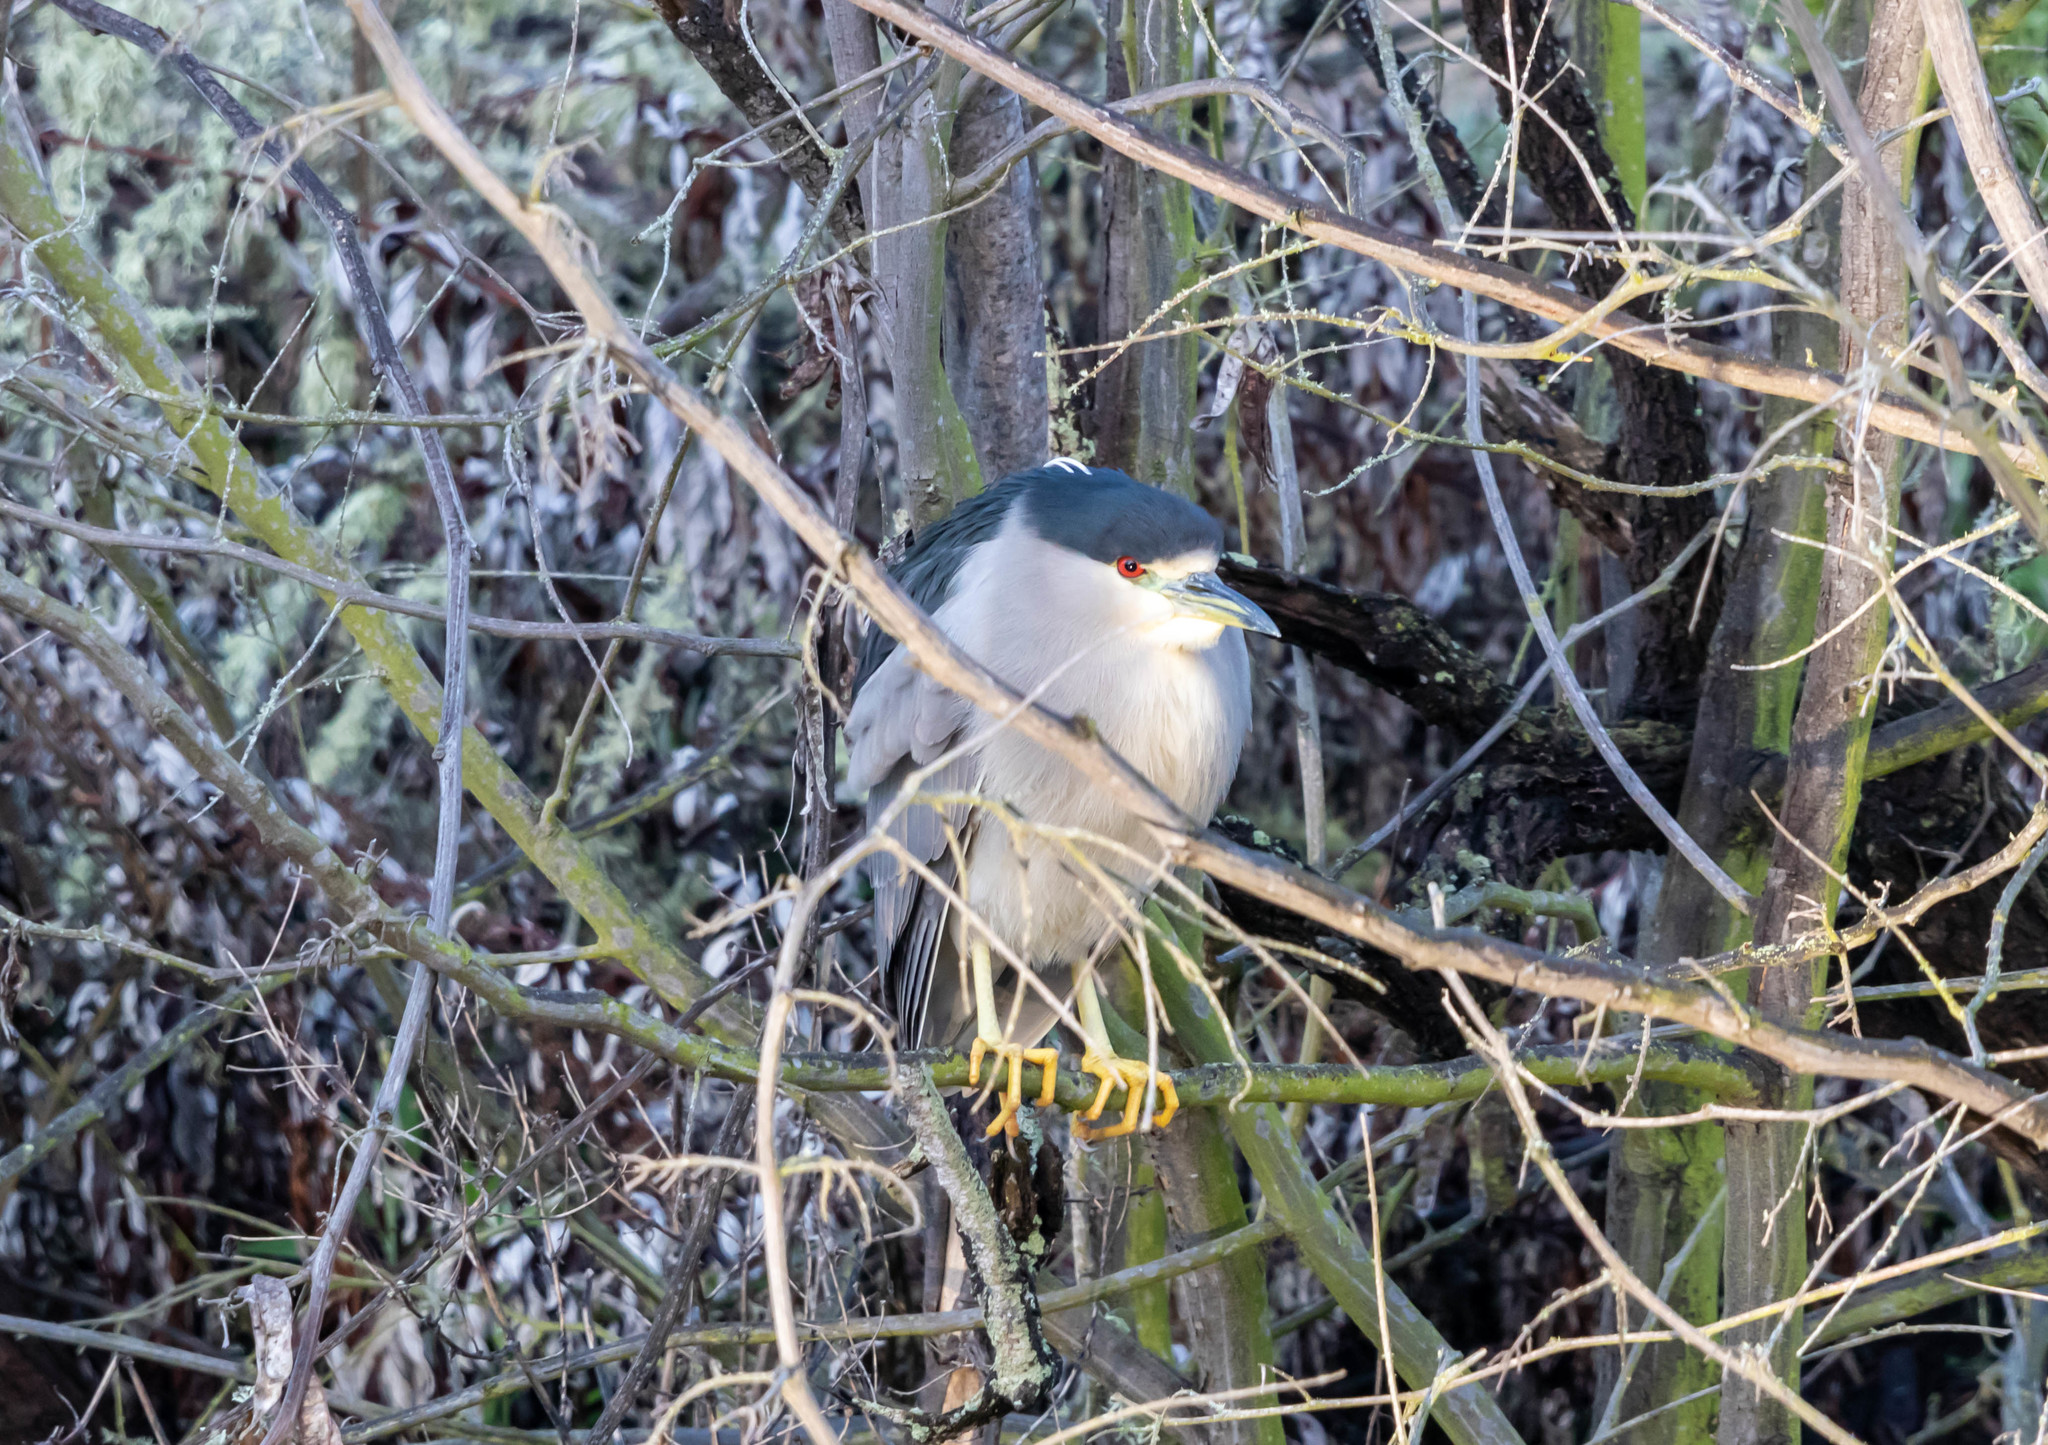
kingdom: Animalia
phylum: Chordata
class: Aves
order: Pelecaniformes
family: Ardeidae
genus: Nycticorax
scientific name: Nycticorax nycticorax
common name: Black-crowned night heron
